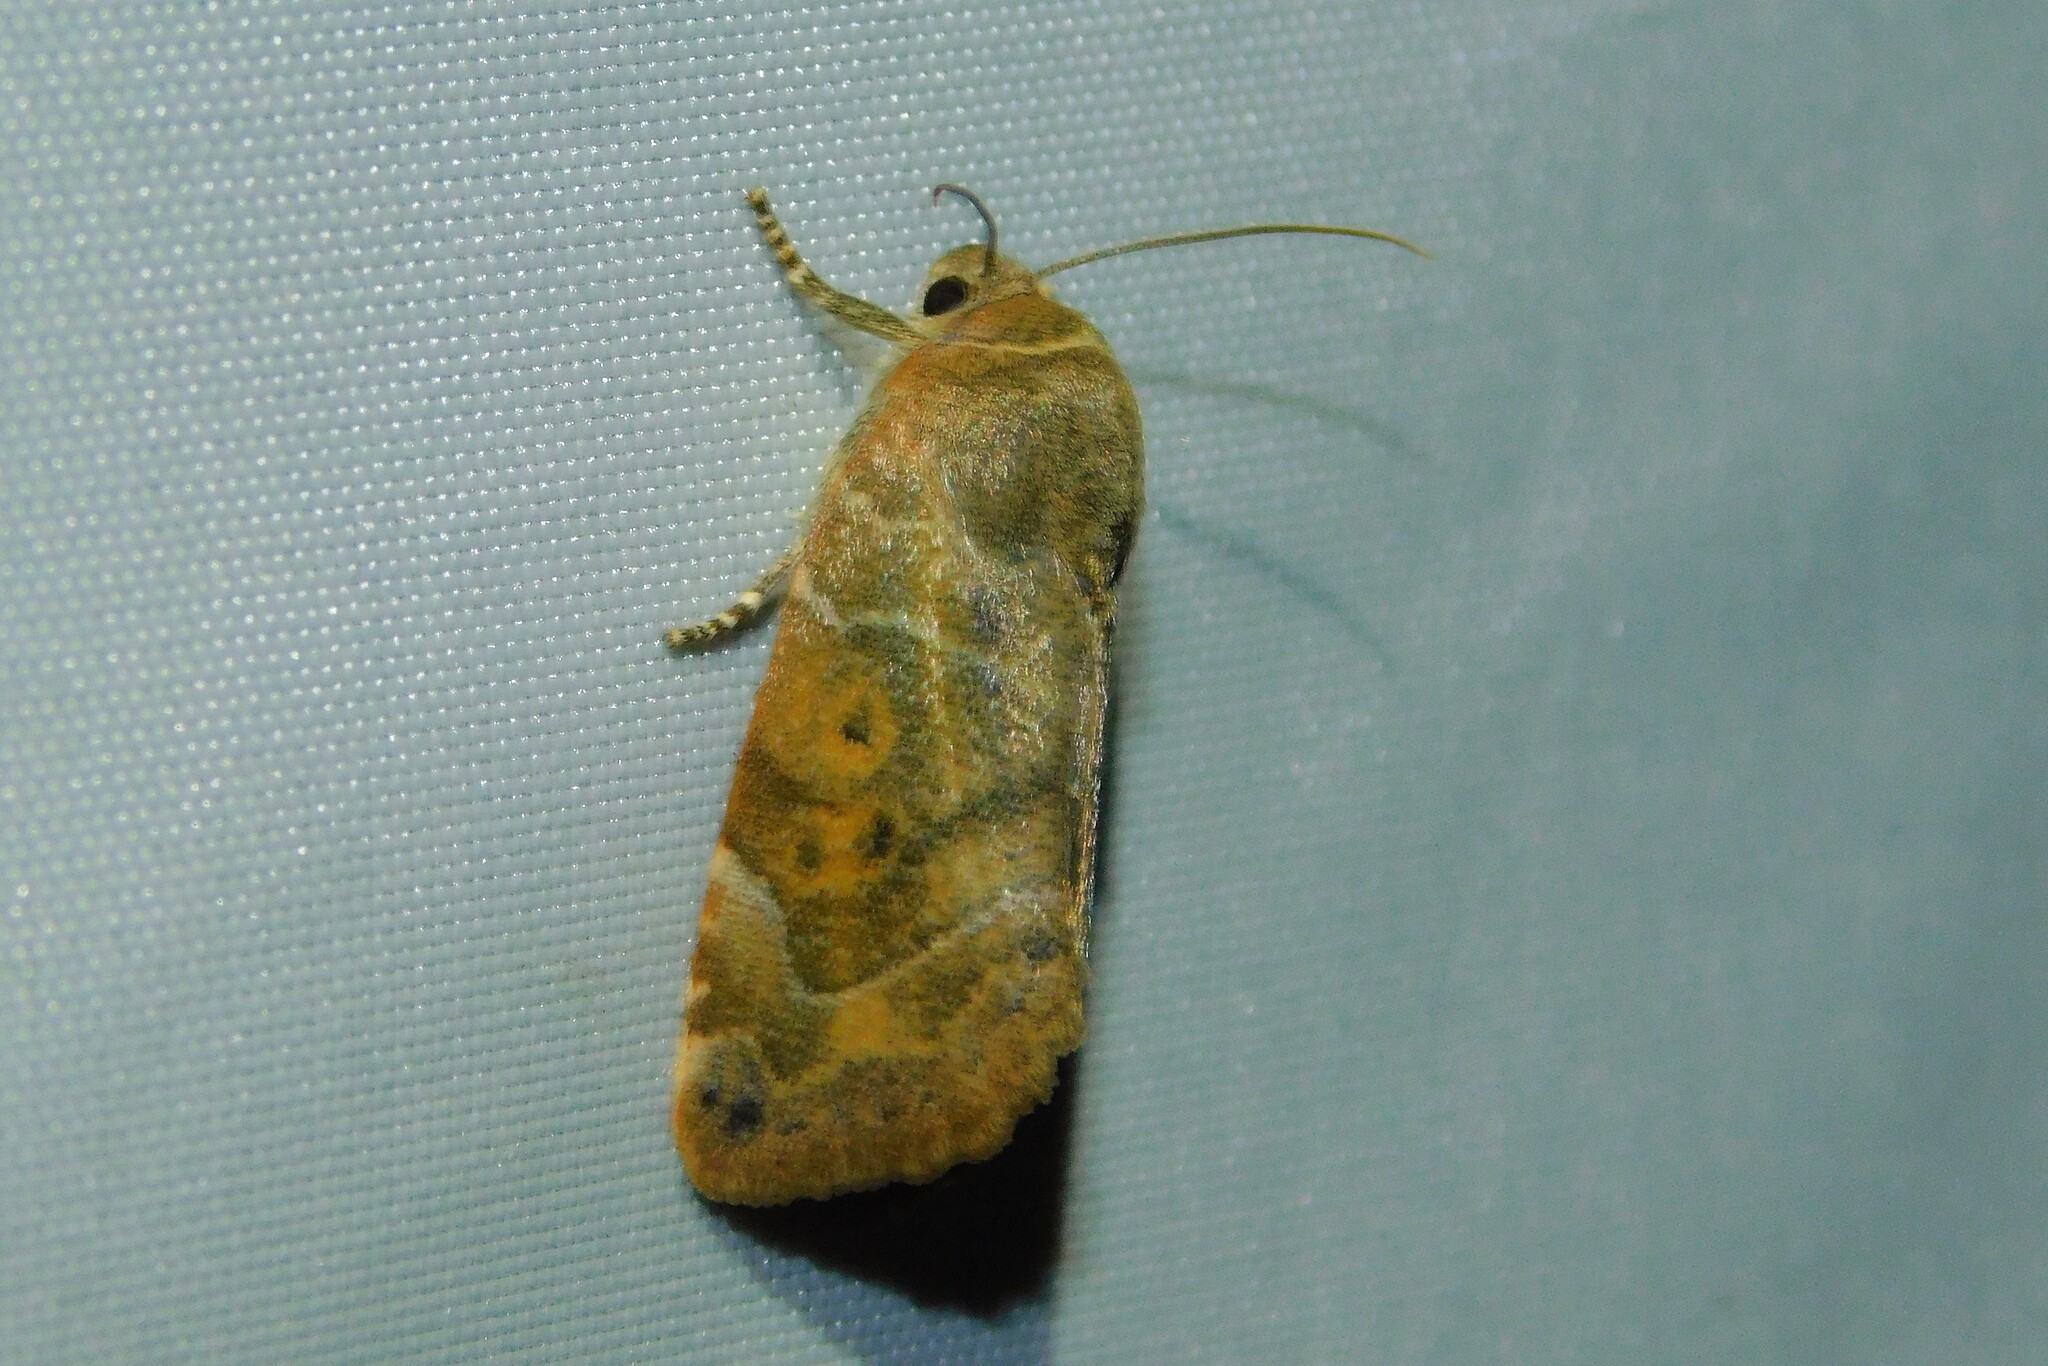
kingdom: Animalia
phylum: Arthropoda
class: Insecta
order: Lepidoptera
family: Noctuidae
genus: Cosmia
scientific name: Cosmia affinis
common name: Lesser-spotted pinion
